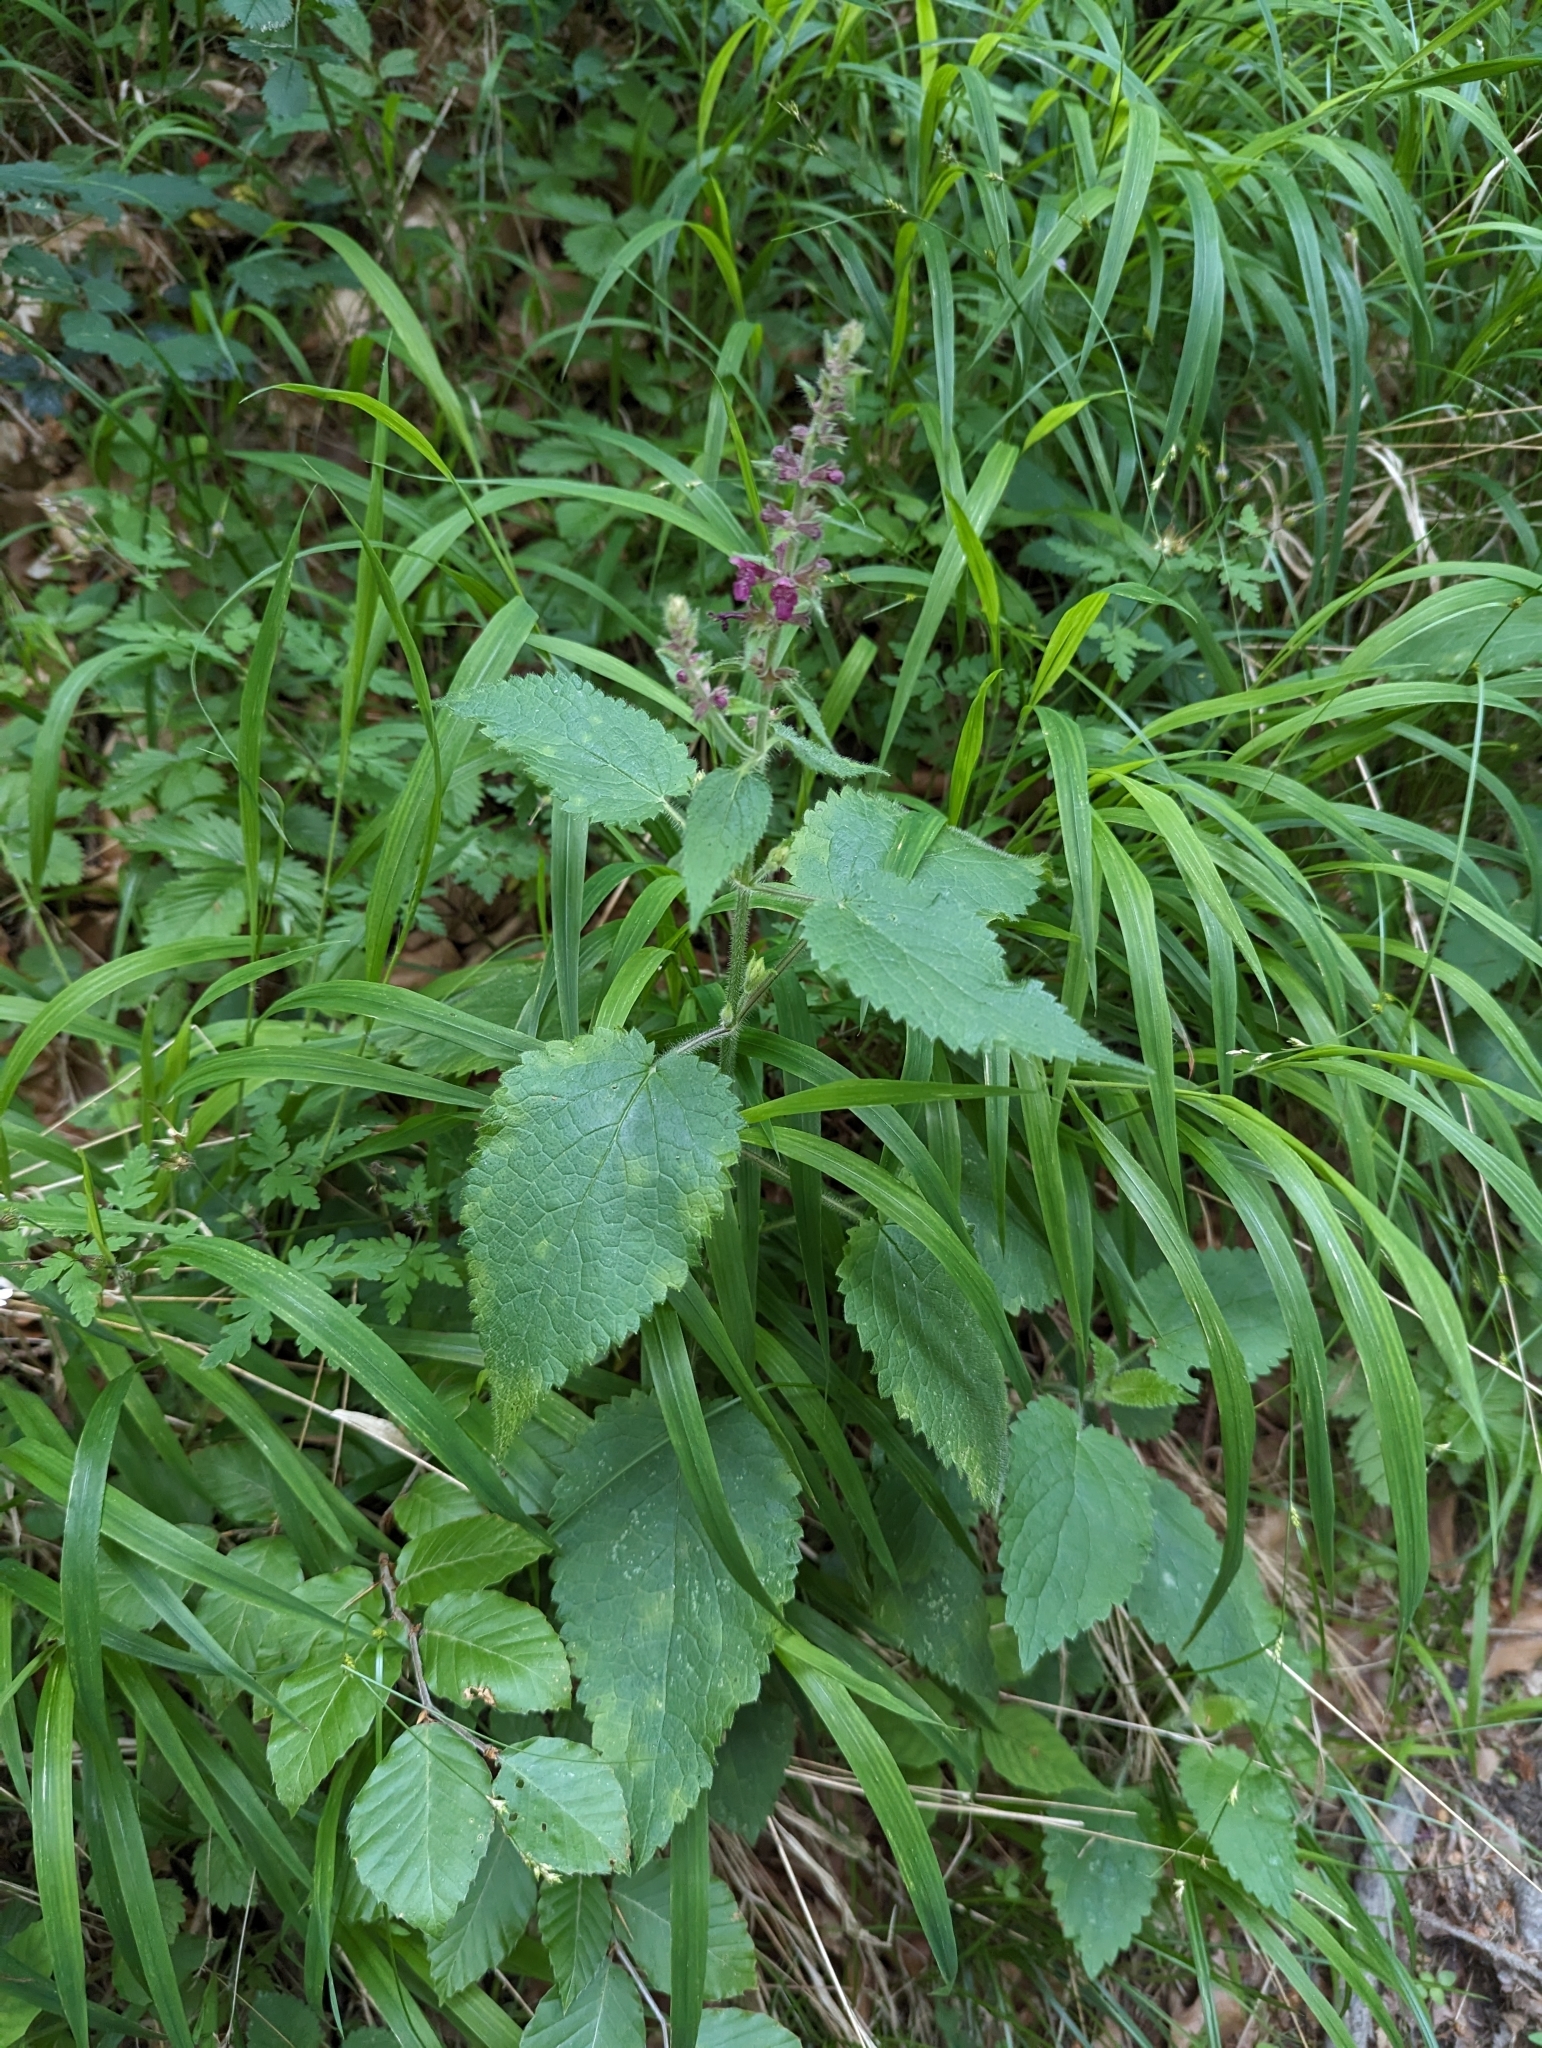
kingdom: Plantae
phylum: Tracheophyta
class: Magnoliopsida
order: Lamiales
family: Lamiaceae
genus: Stachys
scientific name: Stachys sylvatica
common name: Hedge woundwort
